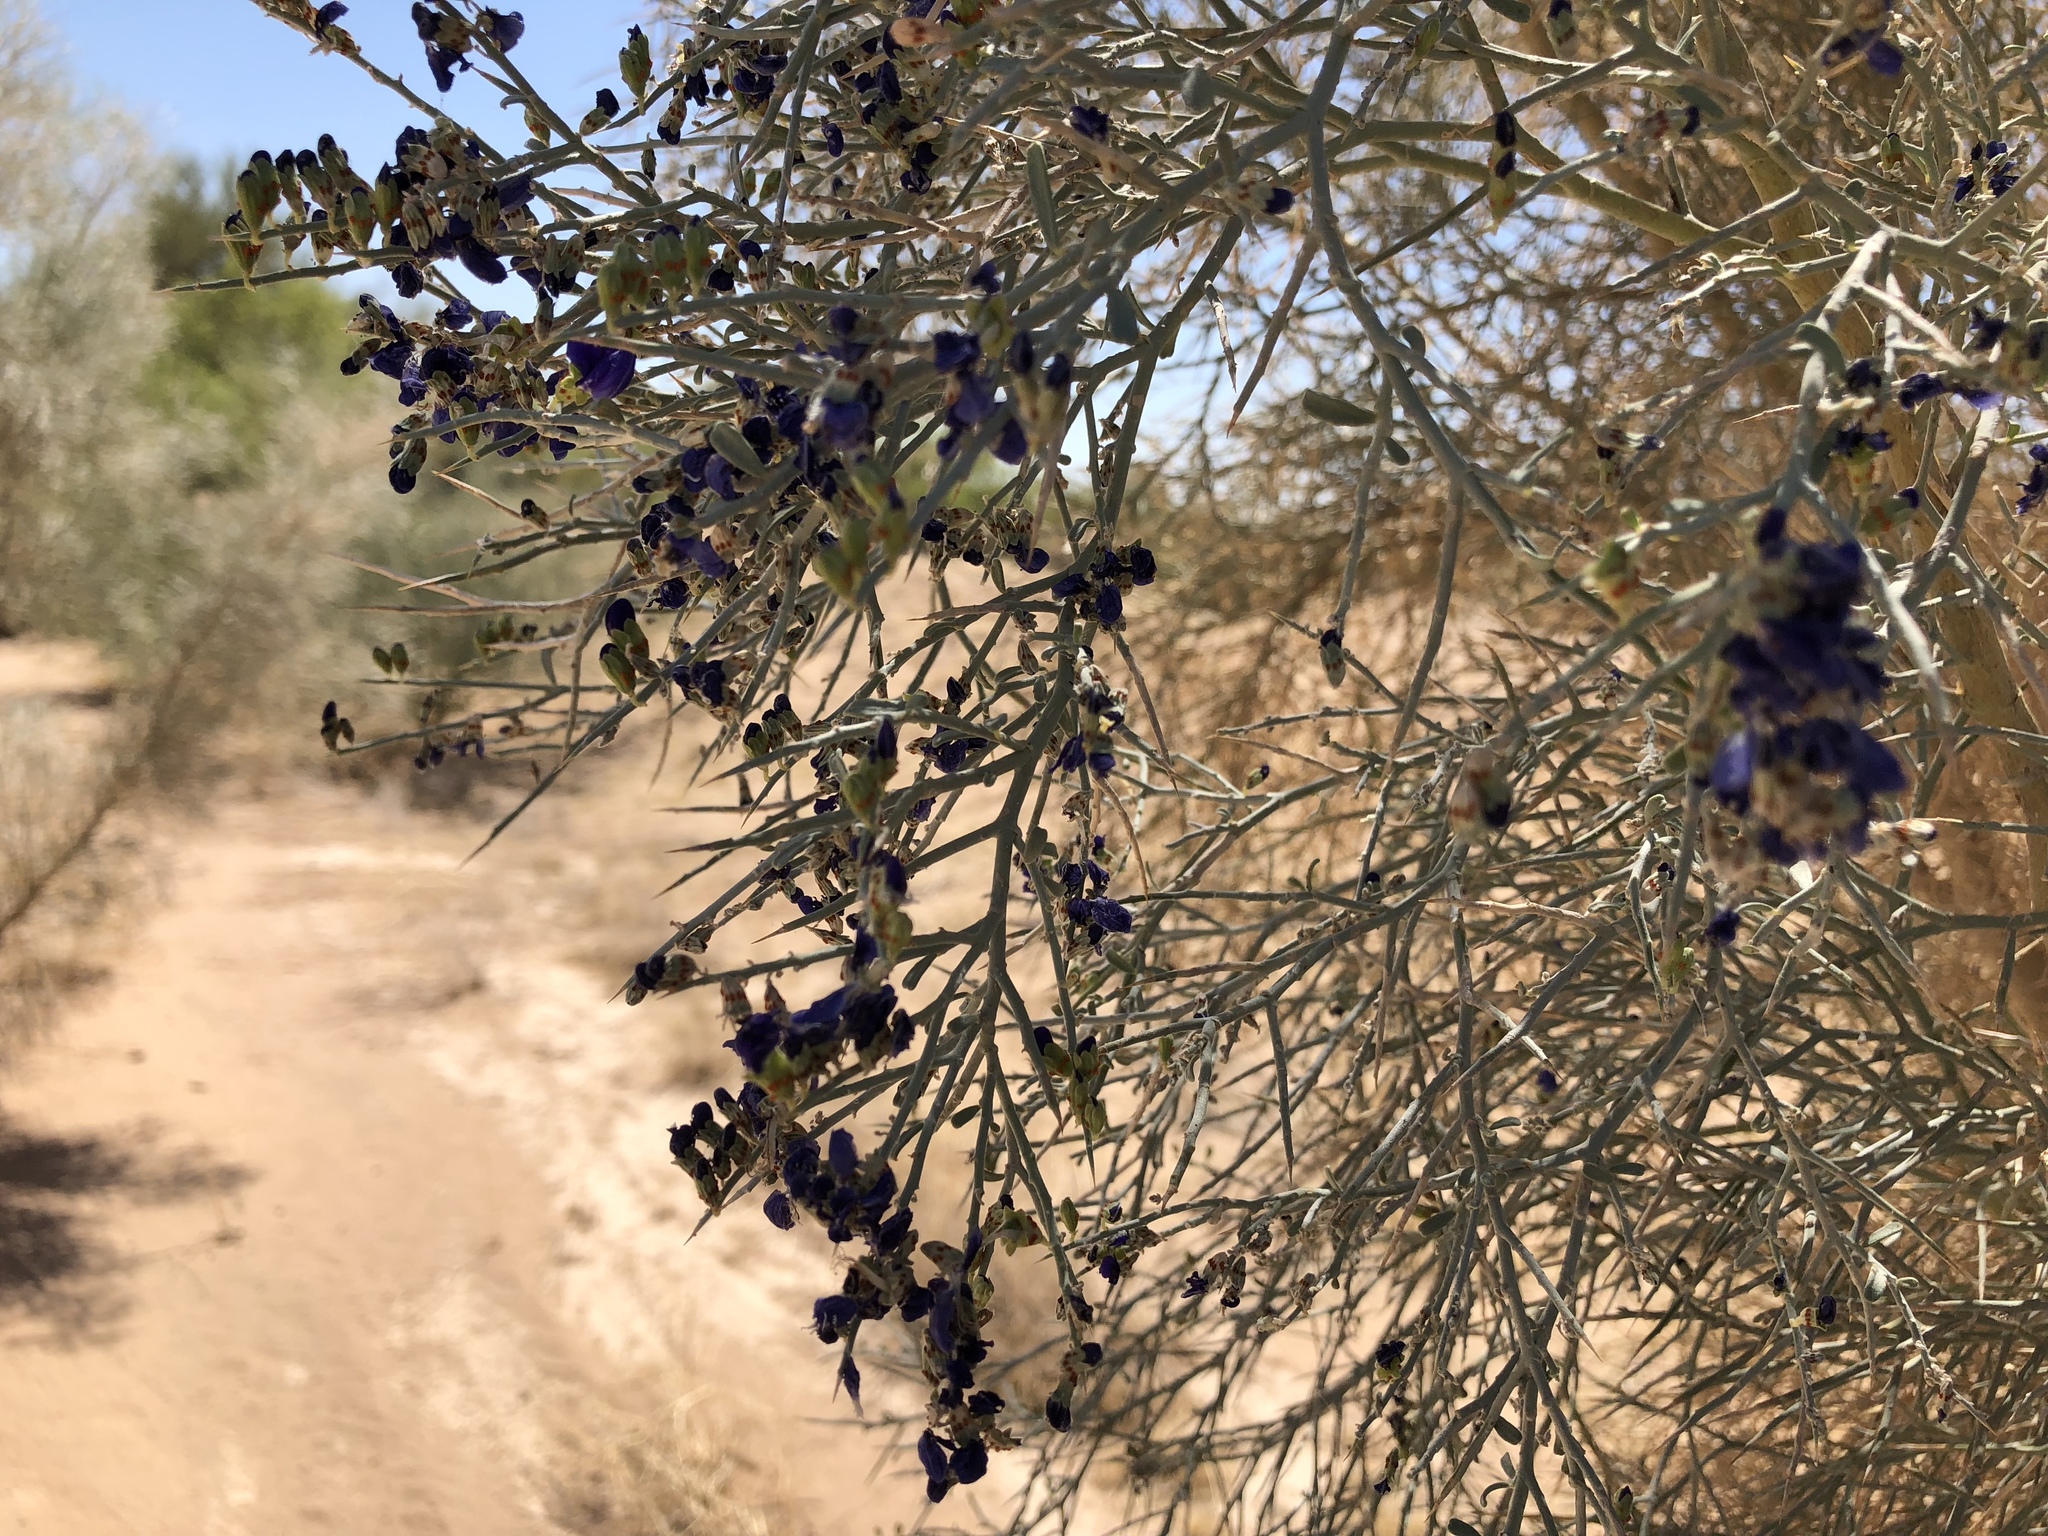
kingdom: Plantae
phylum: Tracheophyta
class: Magnoliopsida
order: Fabales
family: Fabaceae
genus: Psorothamnus
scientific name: Psorothamnus spinosus
